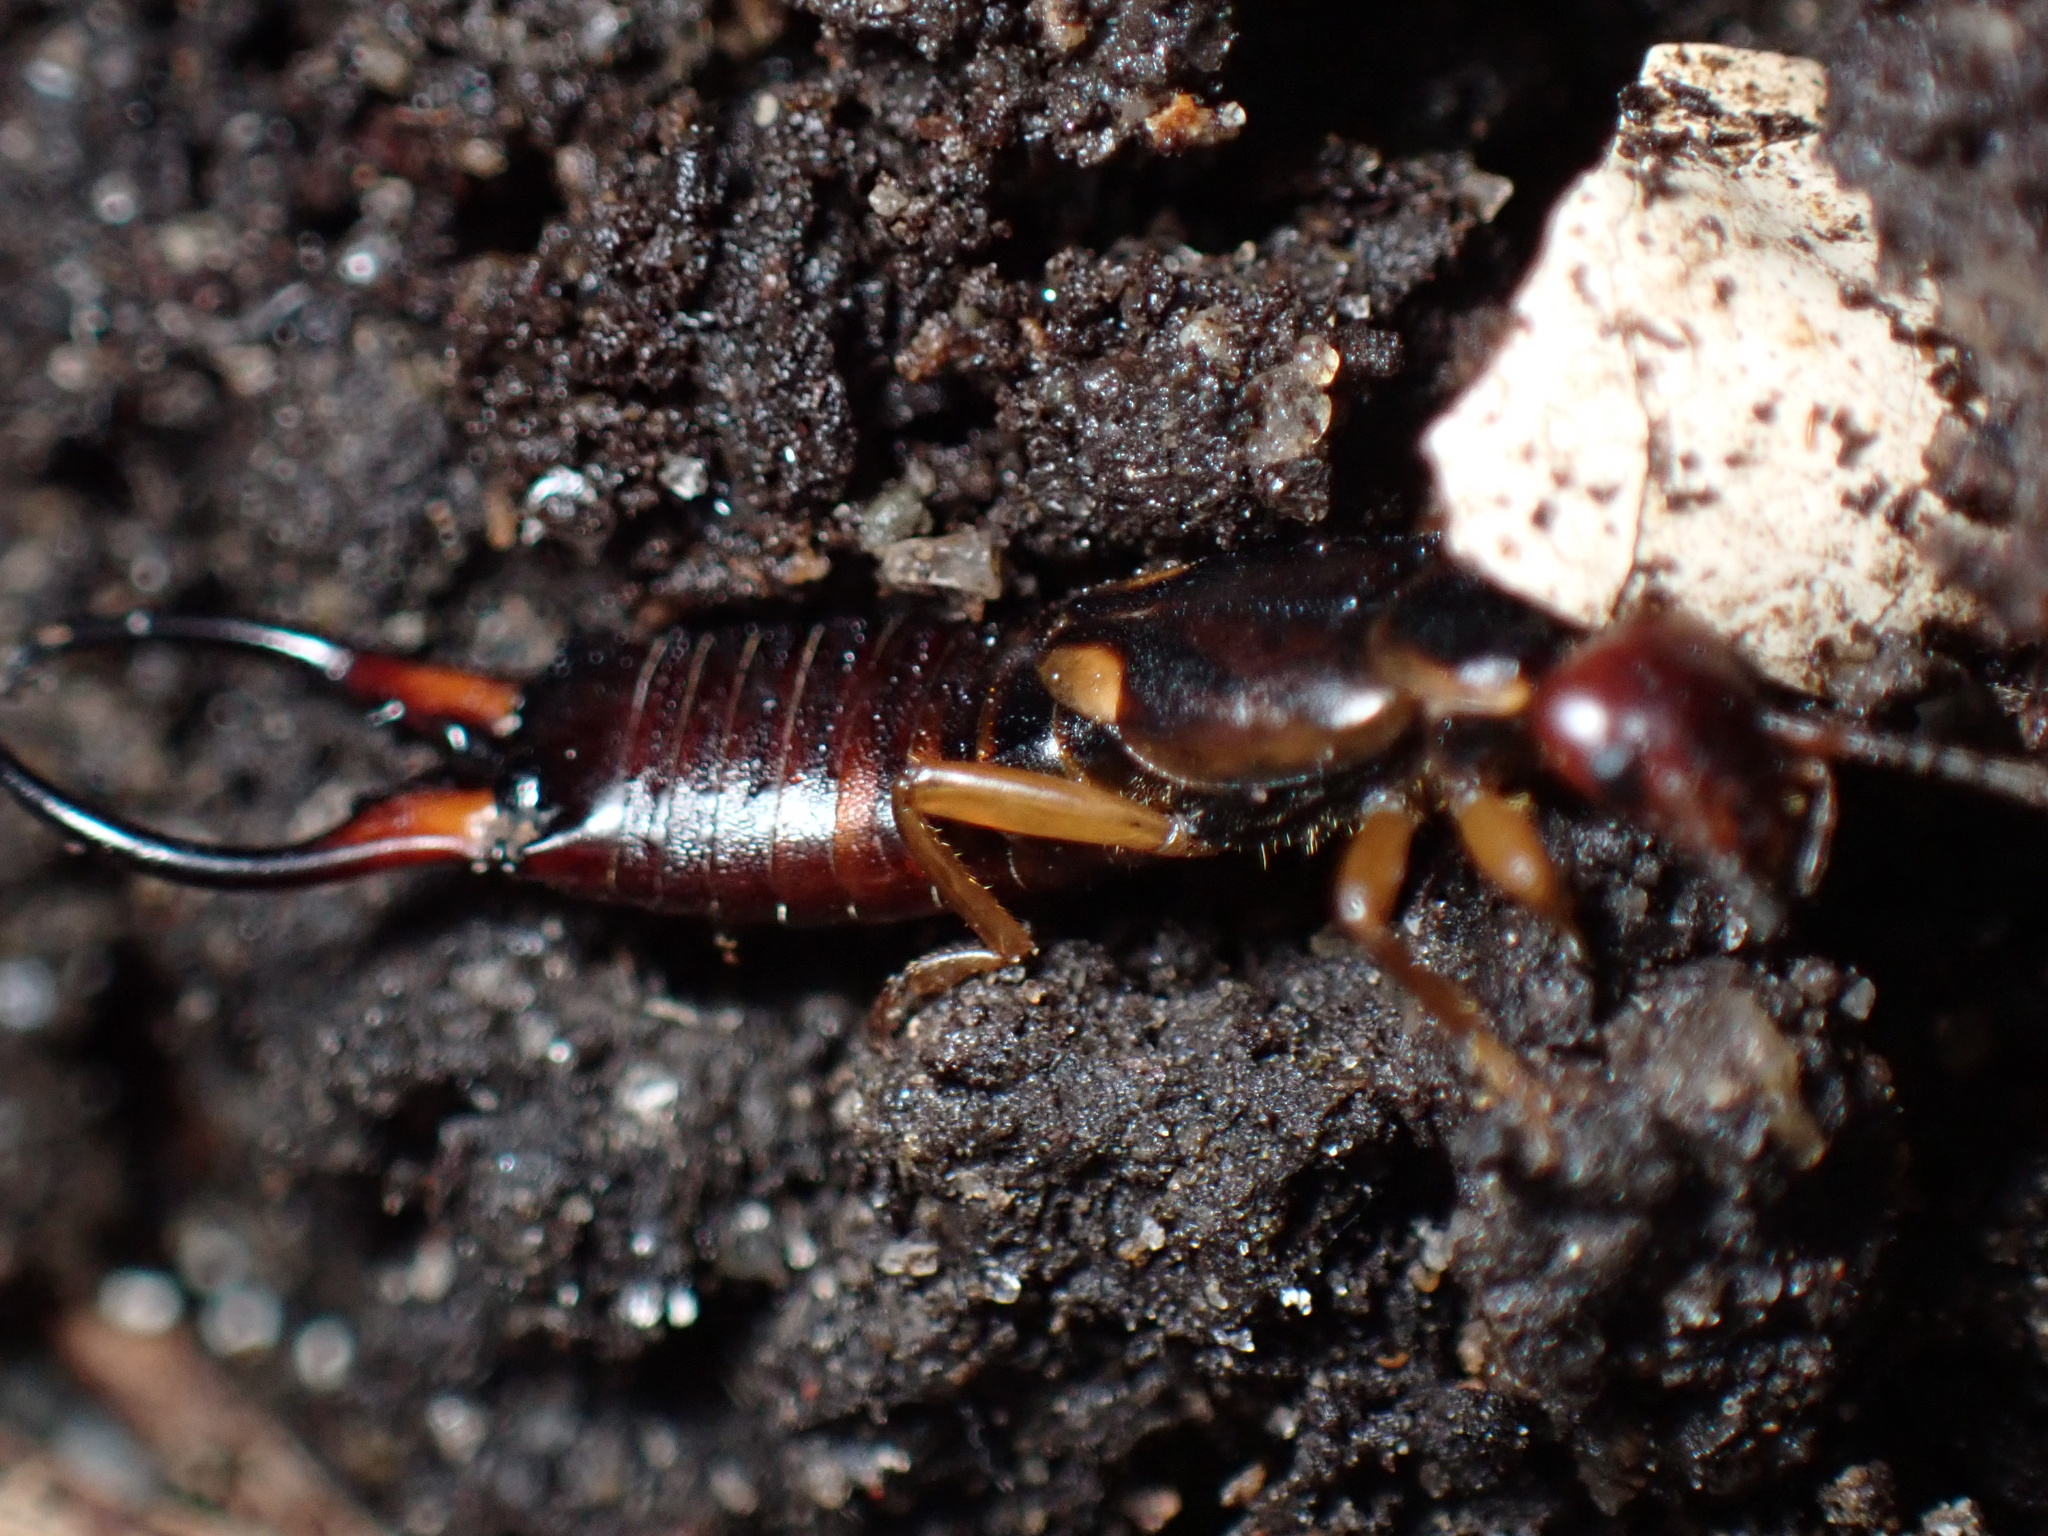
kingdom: Animalia
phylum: Arthropoda
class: Insecta
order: Dermaptera
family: Forficulidae
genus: Forficula
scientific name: Forficula
